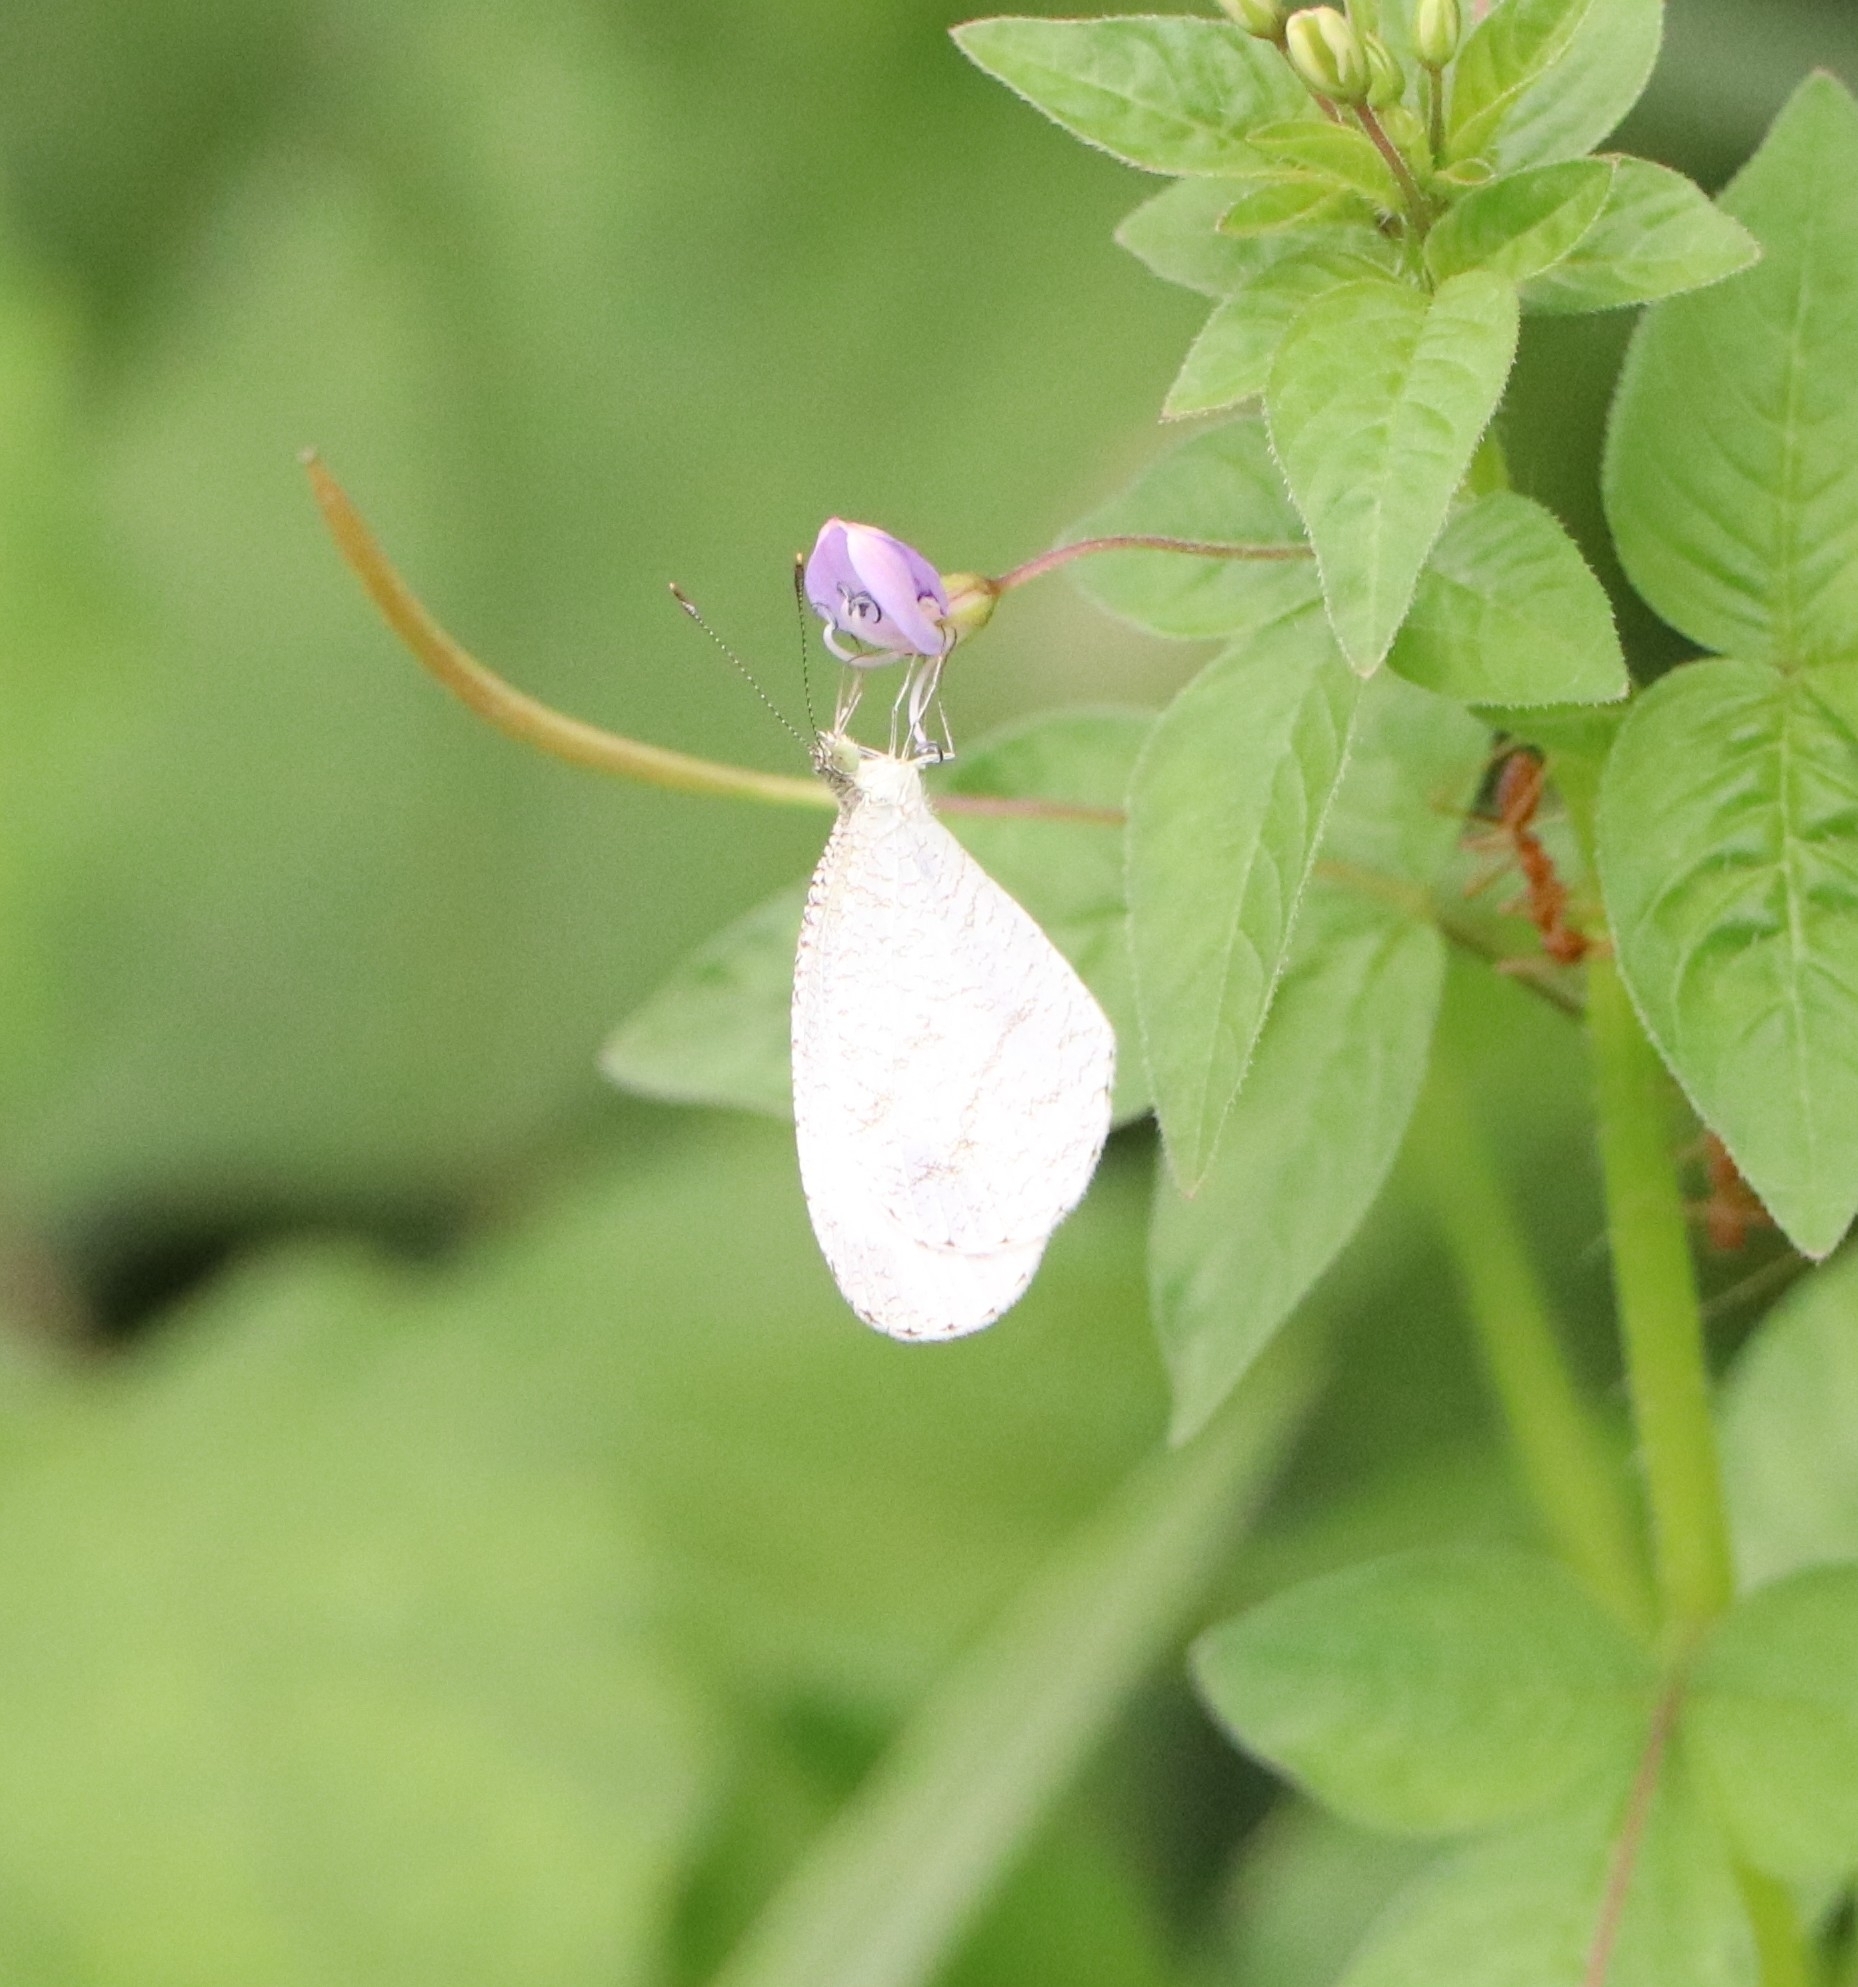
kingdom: Animalia
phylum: Arthropoda
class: Insecta
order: Lepidoptera
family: Pieridae
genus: Leptosia
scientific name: Leptosia nina
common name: Psyche
